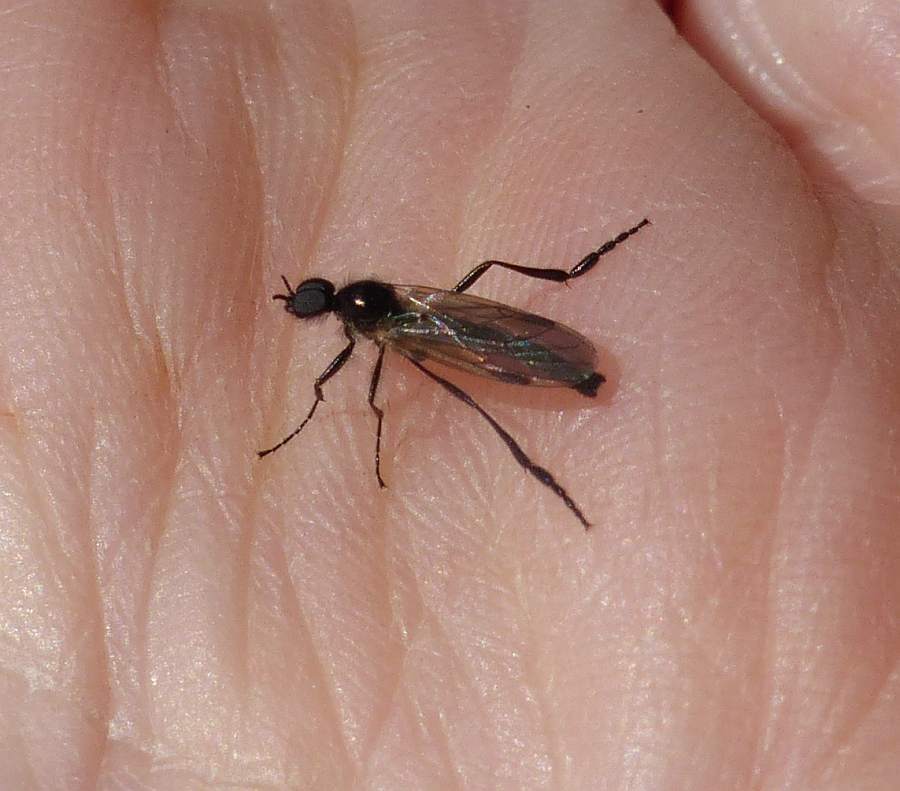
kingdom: Animalia
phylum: Arthropoda
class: Insecta
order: Diptera
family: Bibionidae
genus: Bibio
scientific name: Bibio slossonae
